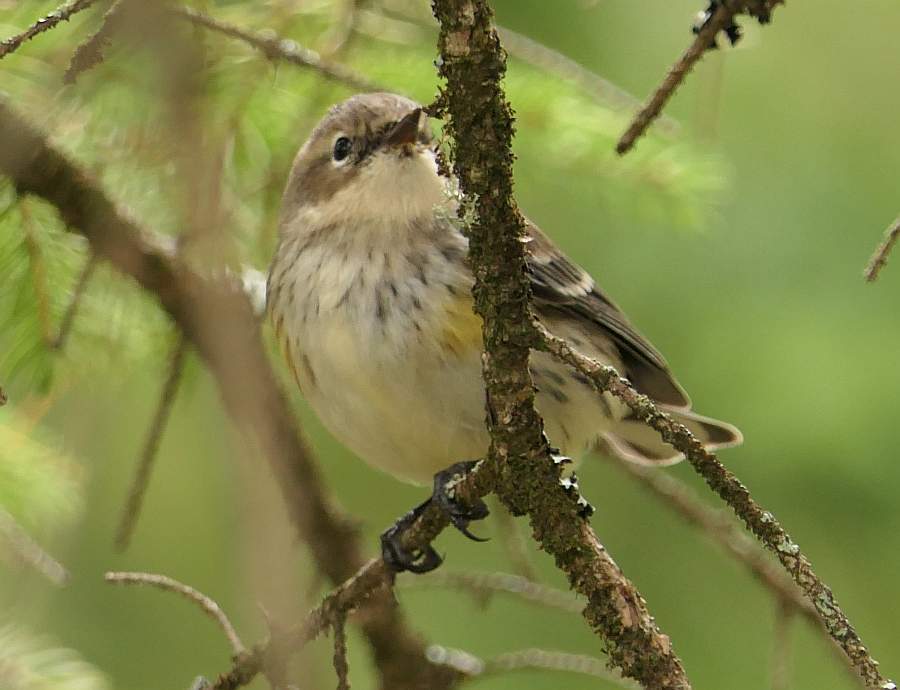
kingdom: Animalia
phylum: Chordata
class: Aves
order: Passeriformes
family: Parulidae
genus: Setophaga
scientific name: Setophaga coronata
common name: Myrtle warbler
